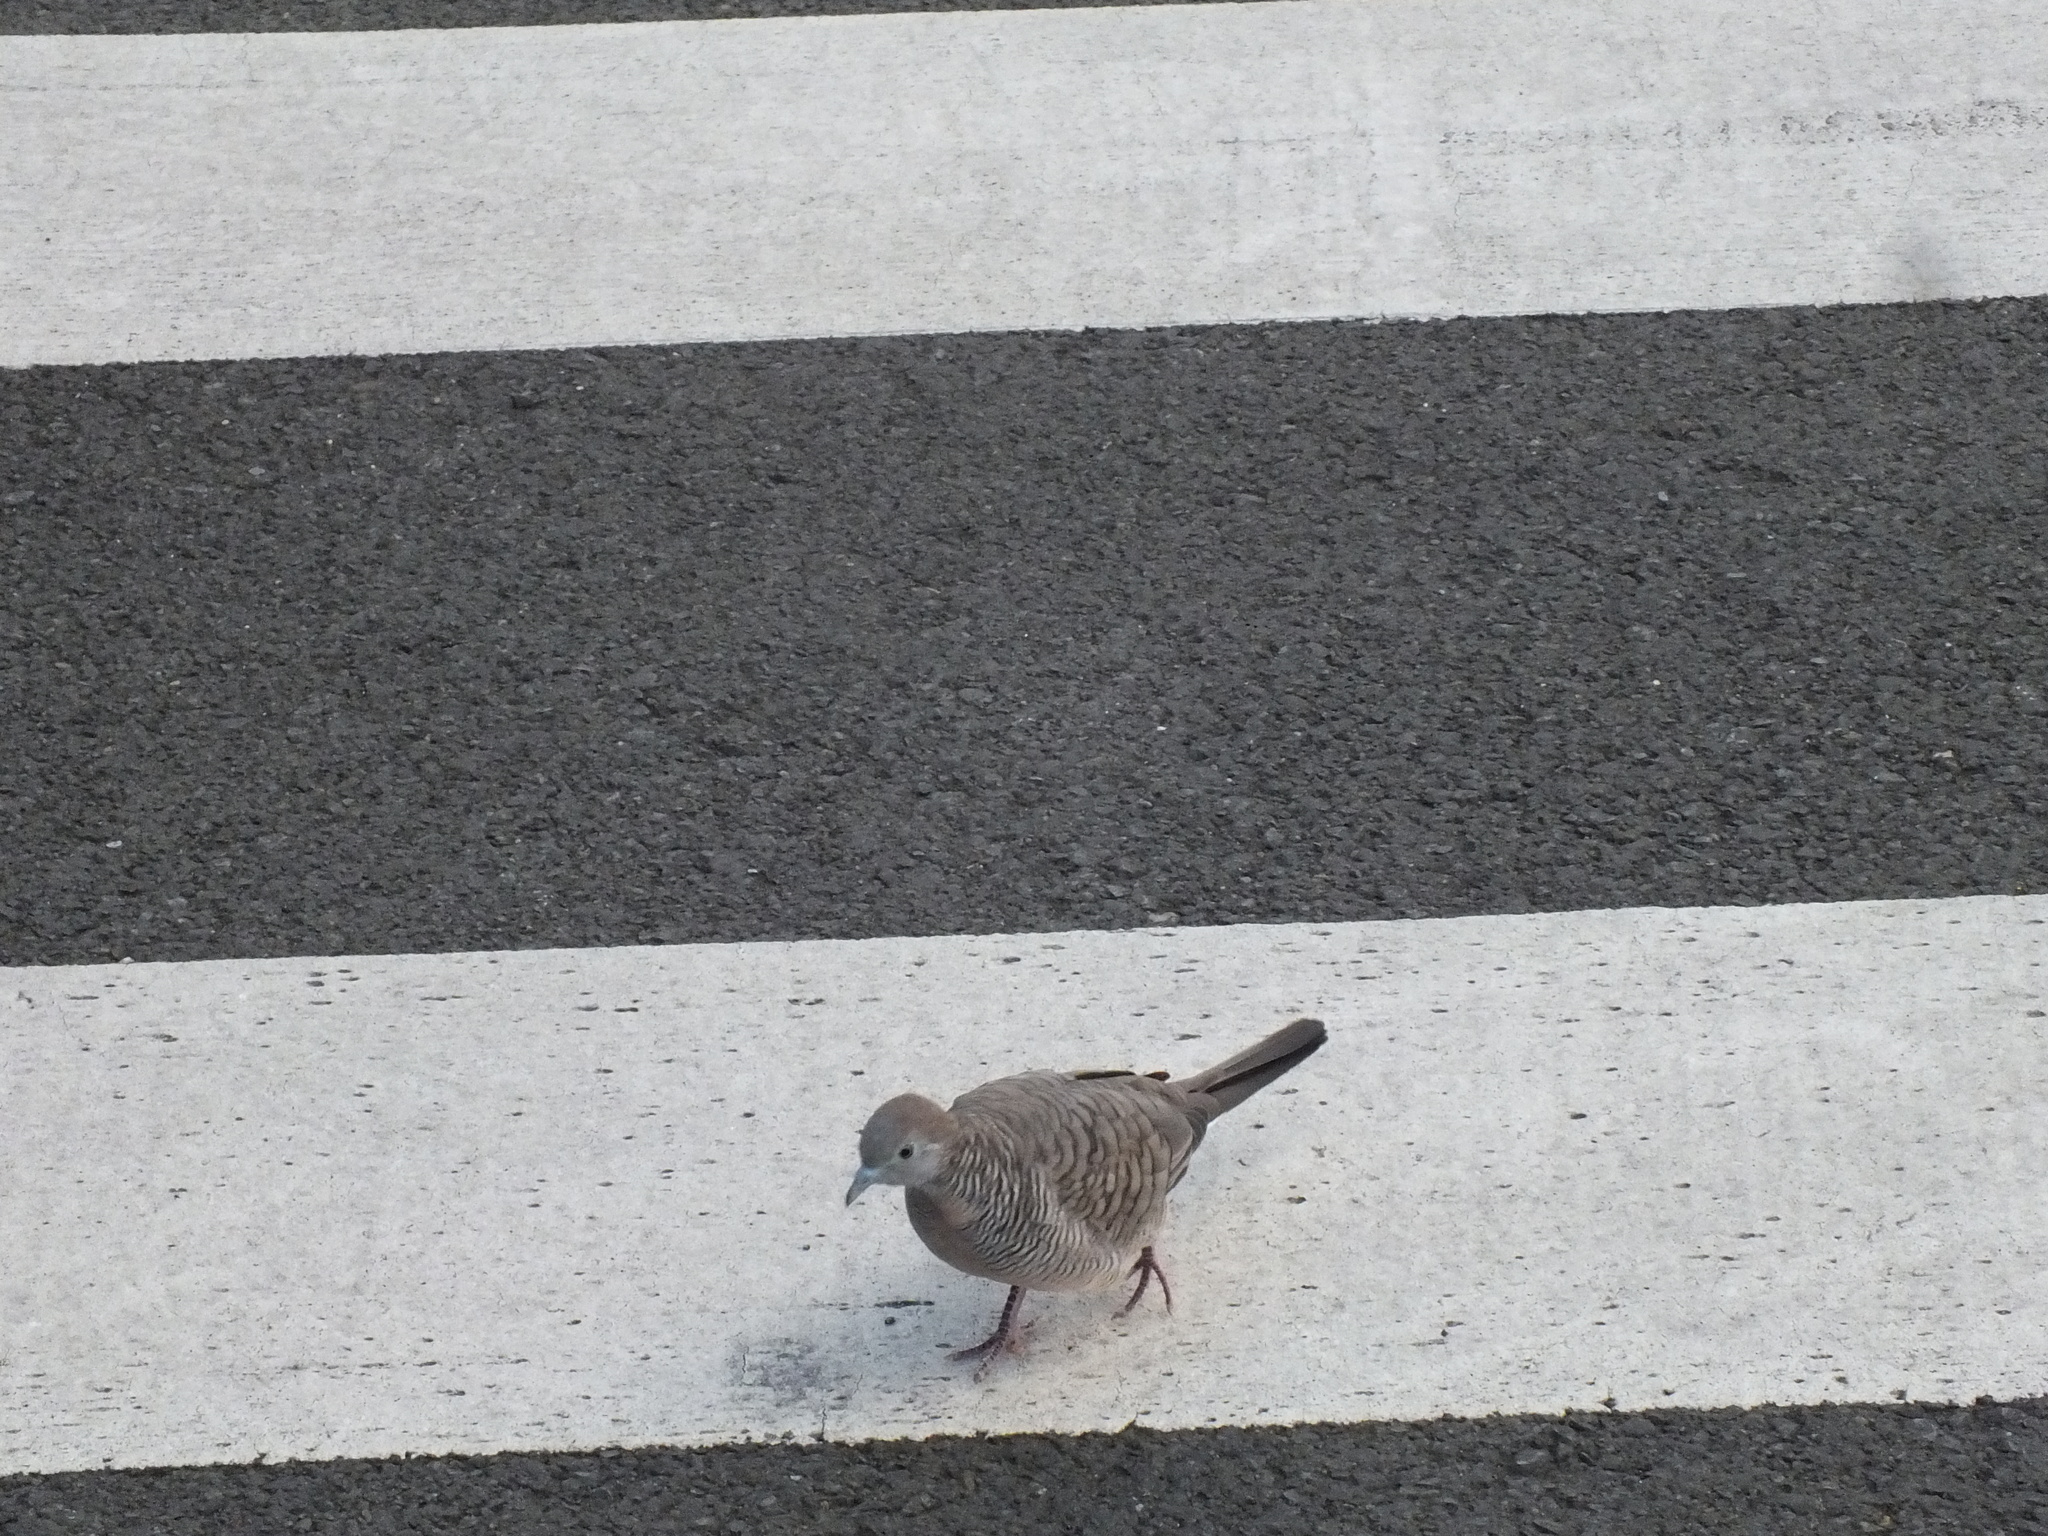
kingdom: Animalia
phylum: Chordata
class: Aves
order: Columbiformes
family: Columbidae
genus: Geopelia
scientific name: Geopelia striata
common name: Zebra dove
